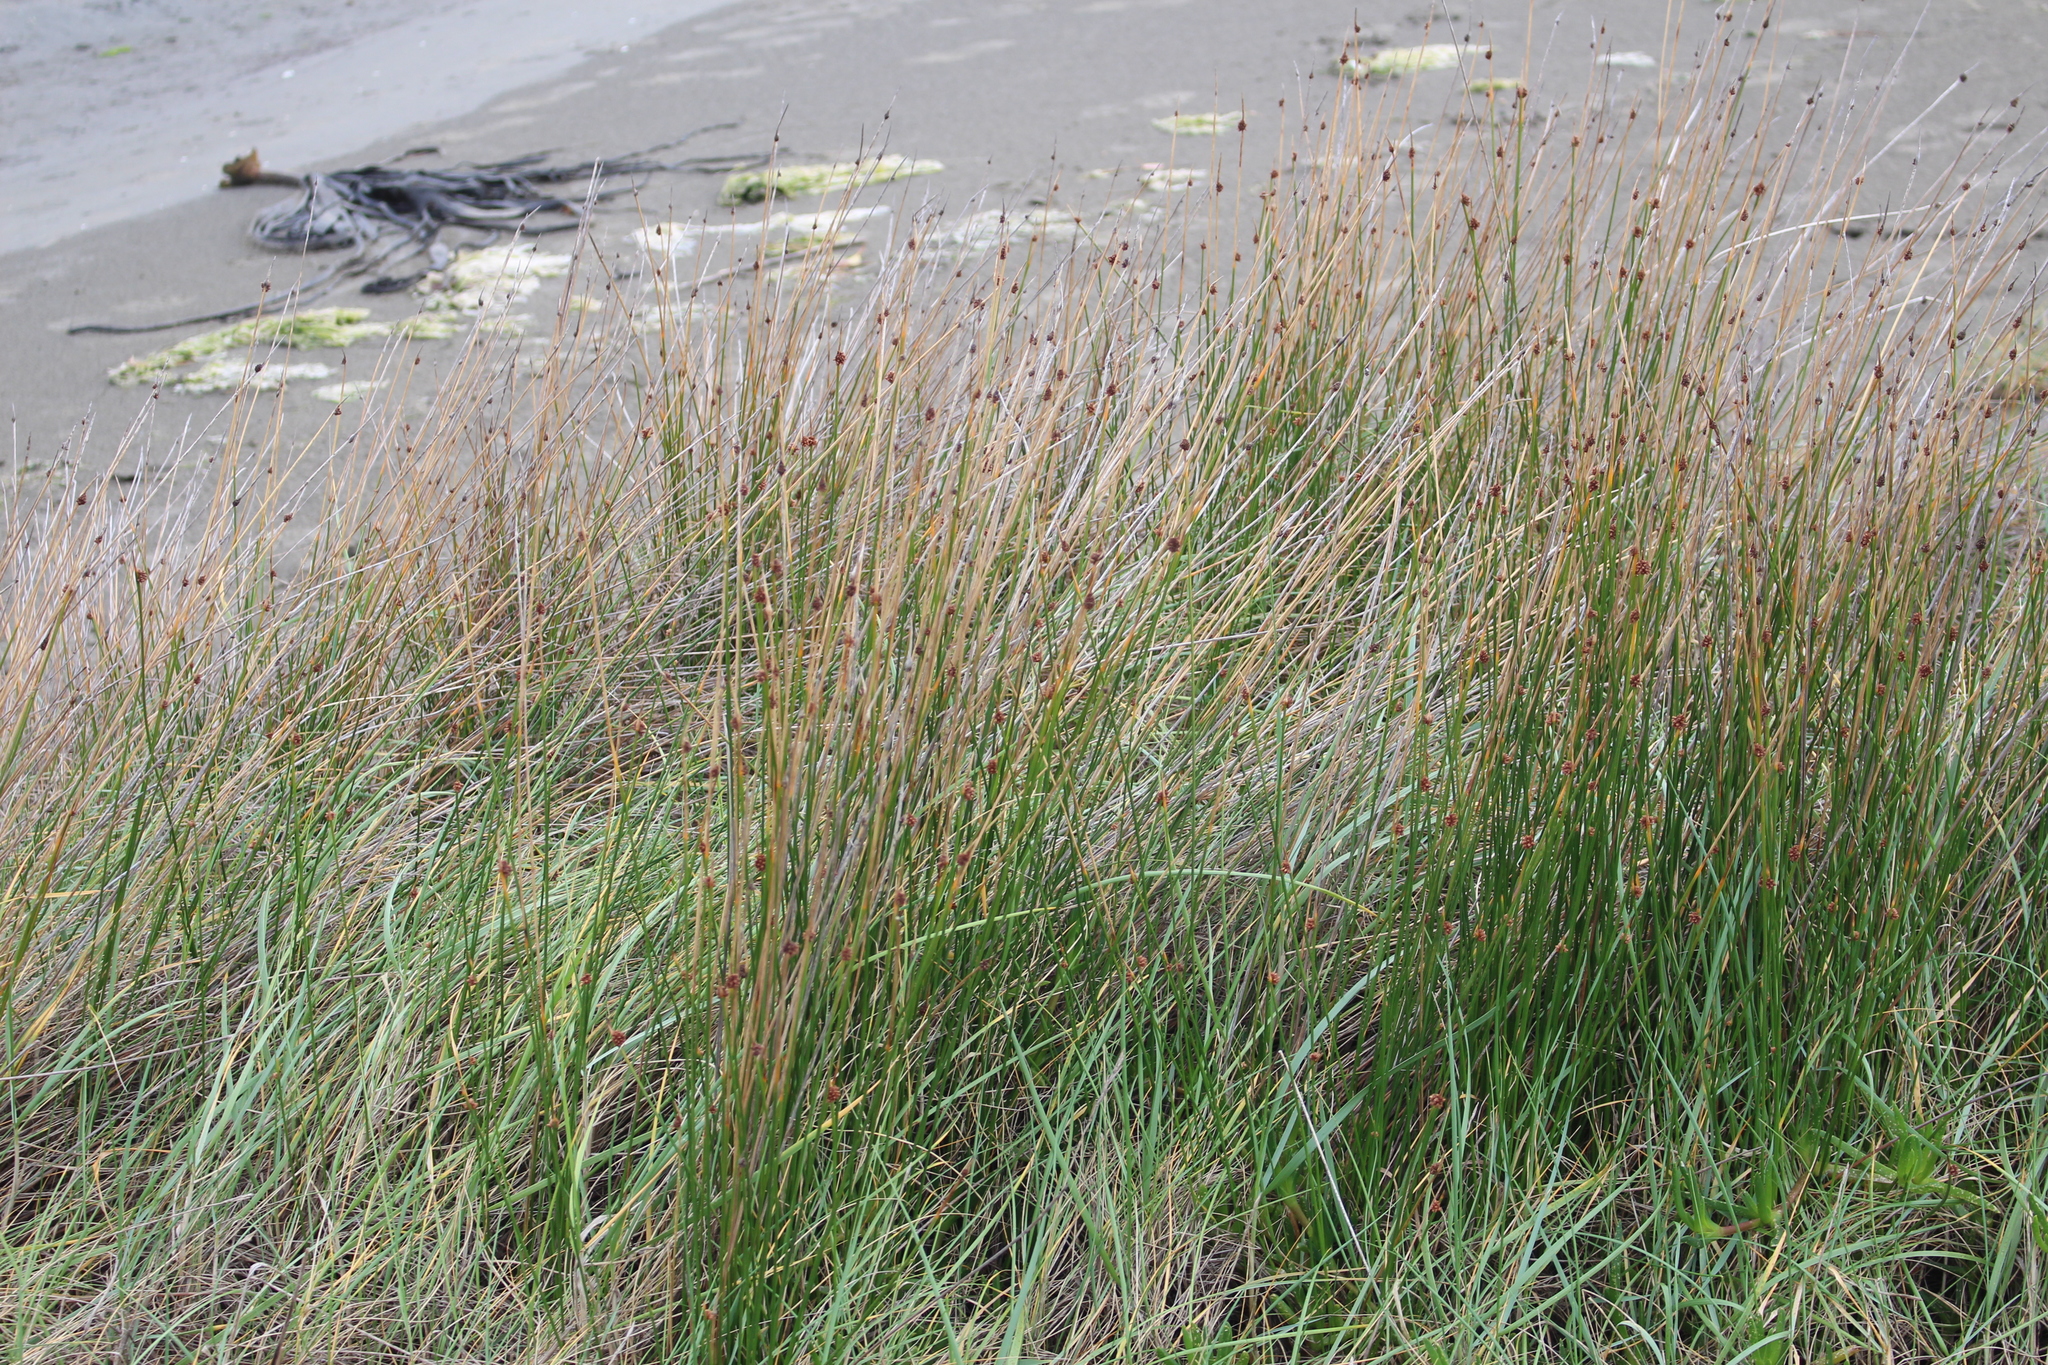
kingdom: Plantae
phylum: Tracheophyta
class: Liliopsida
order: Poales
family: Cyperaceae
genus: Ficinia
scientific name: Ficinia nodosa
